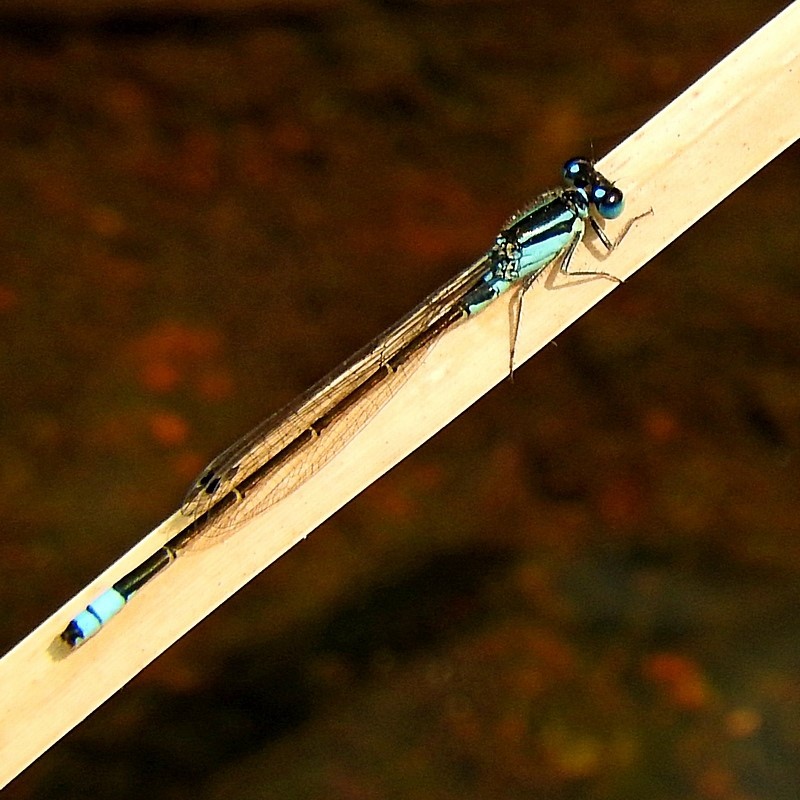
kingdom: Animalia
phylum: Arthropoda
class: Insecta
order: Odonata
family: Coenagrionidae
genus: Ischnura
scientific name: Ischnura heterosticta
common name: Common bluetail
